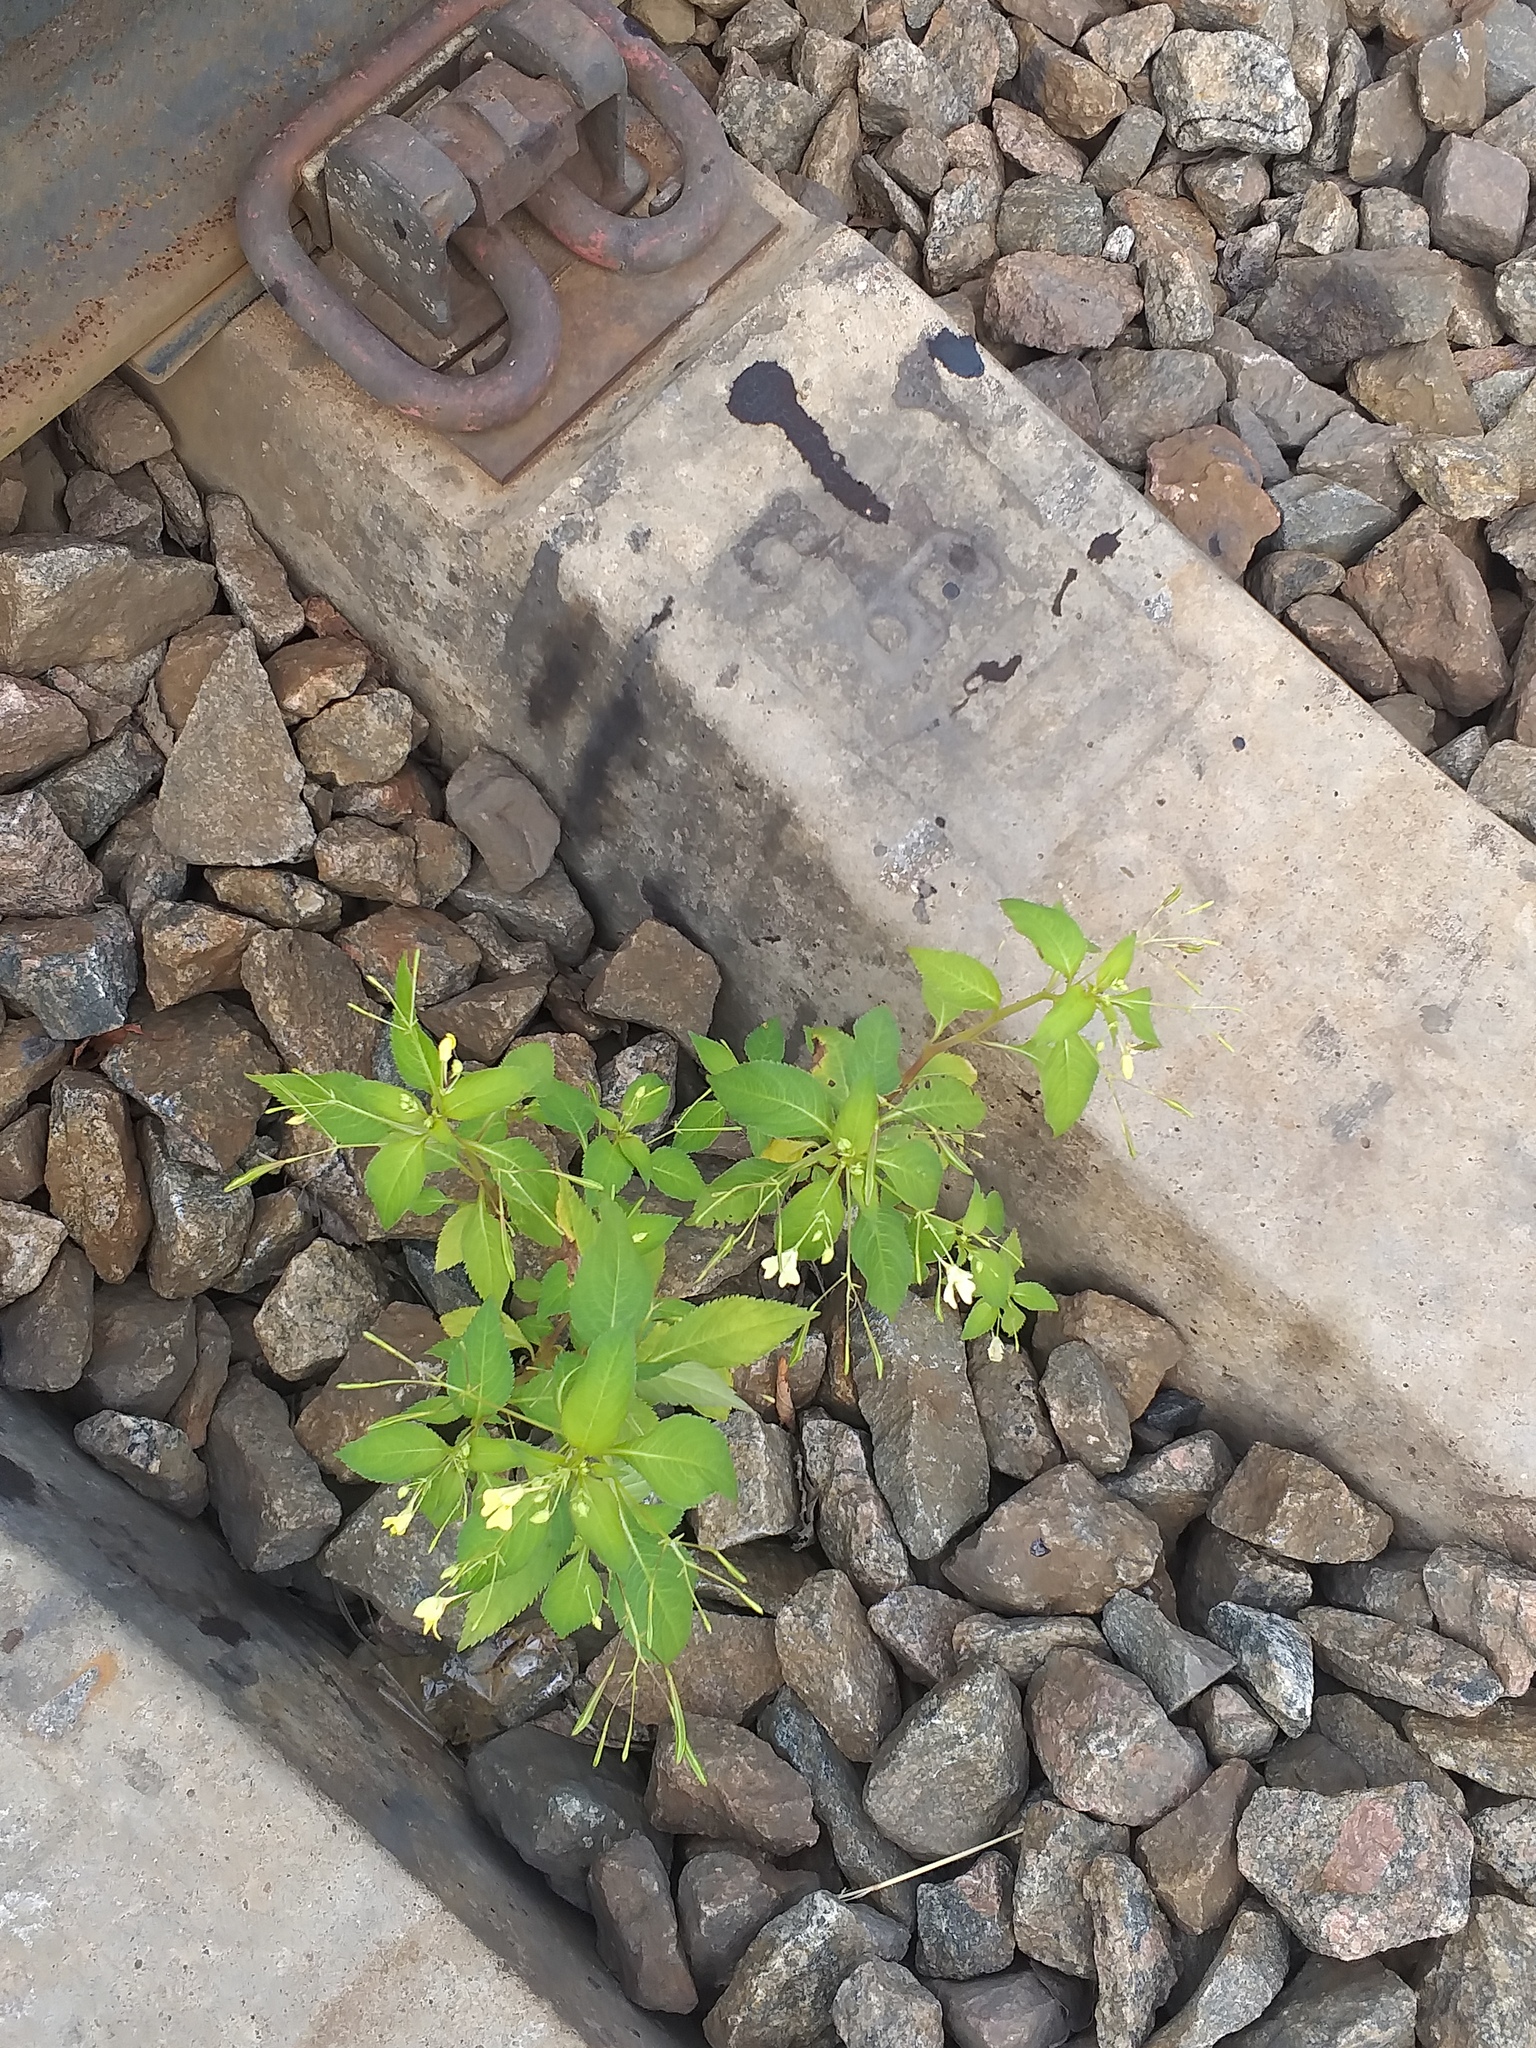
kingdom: Plantae
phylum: Tracheophyta
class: Magnoliopsida
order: Ericales
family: Balsaminaceae
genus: Impatiens
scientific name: Impatiens parviflora
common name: Small balsam
